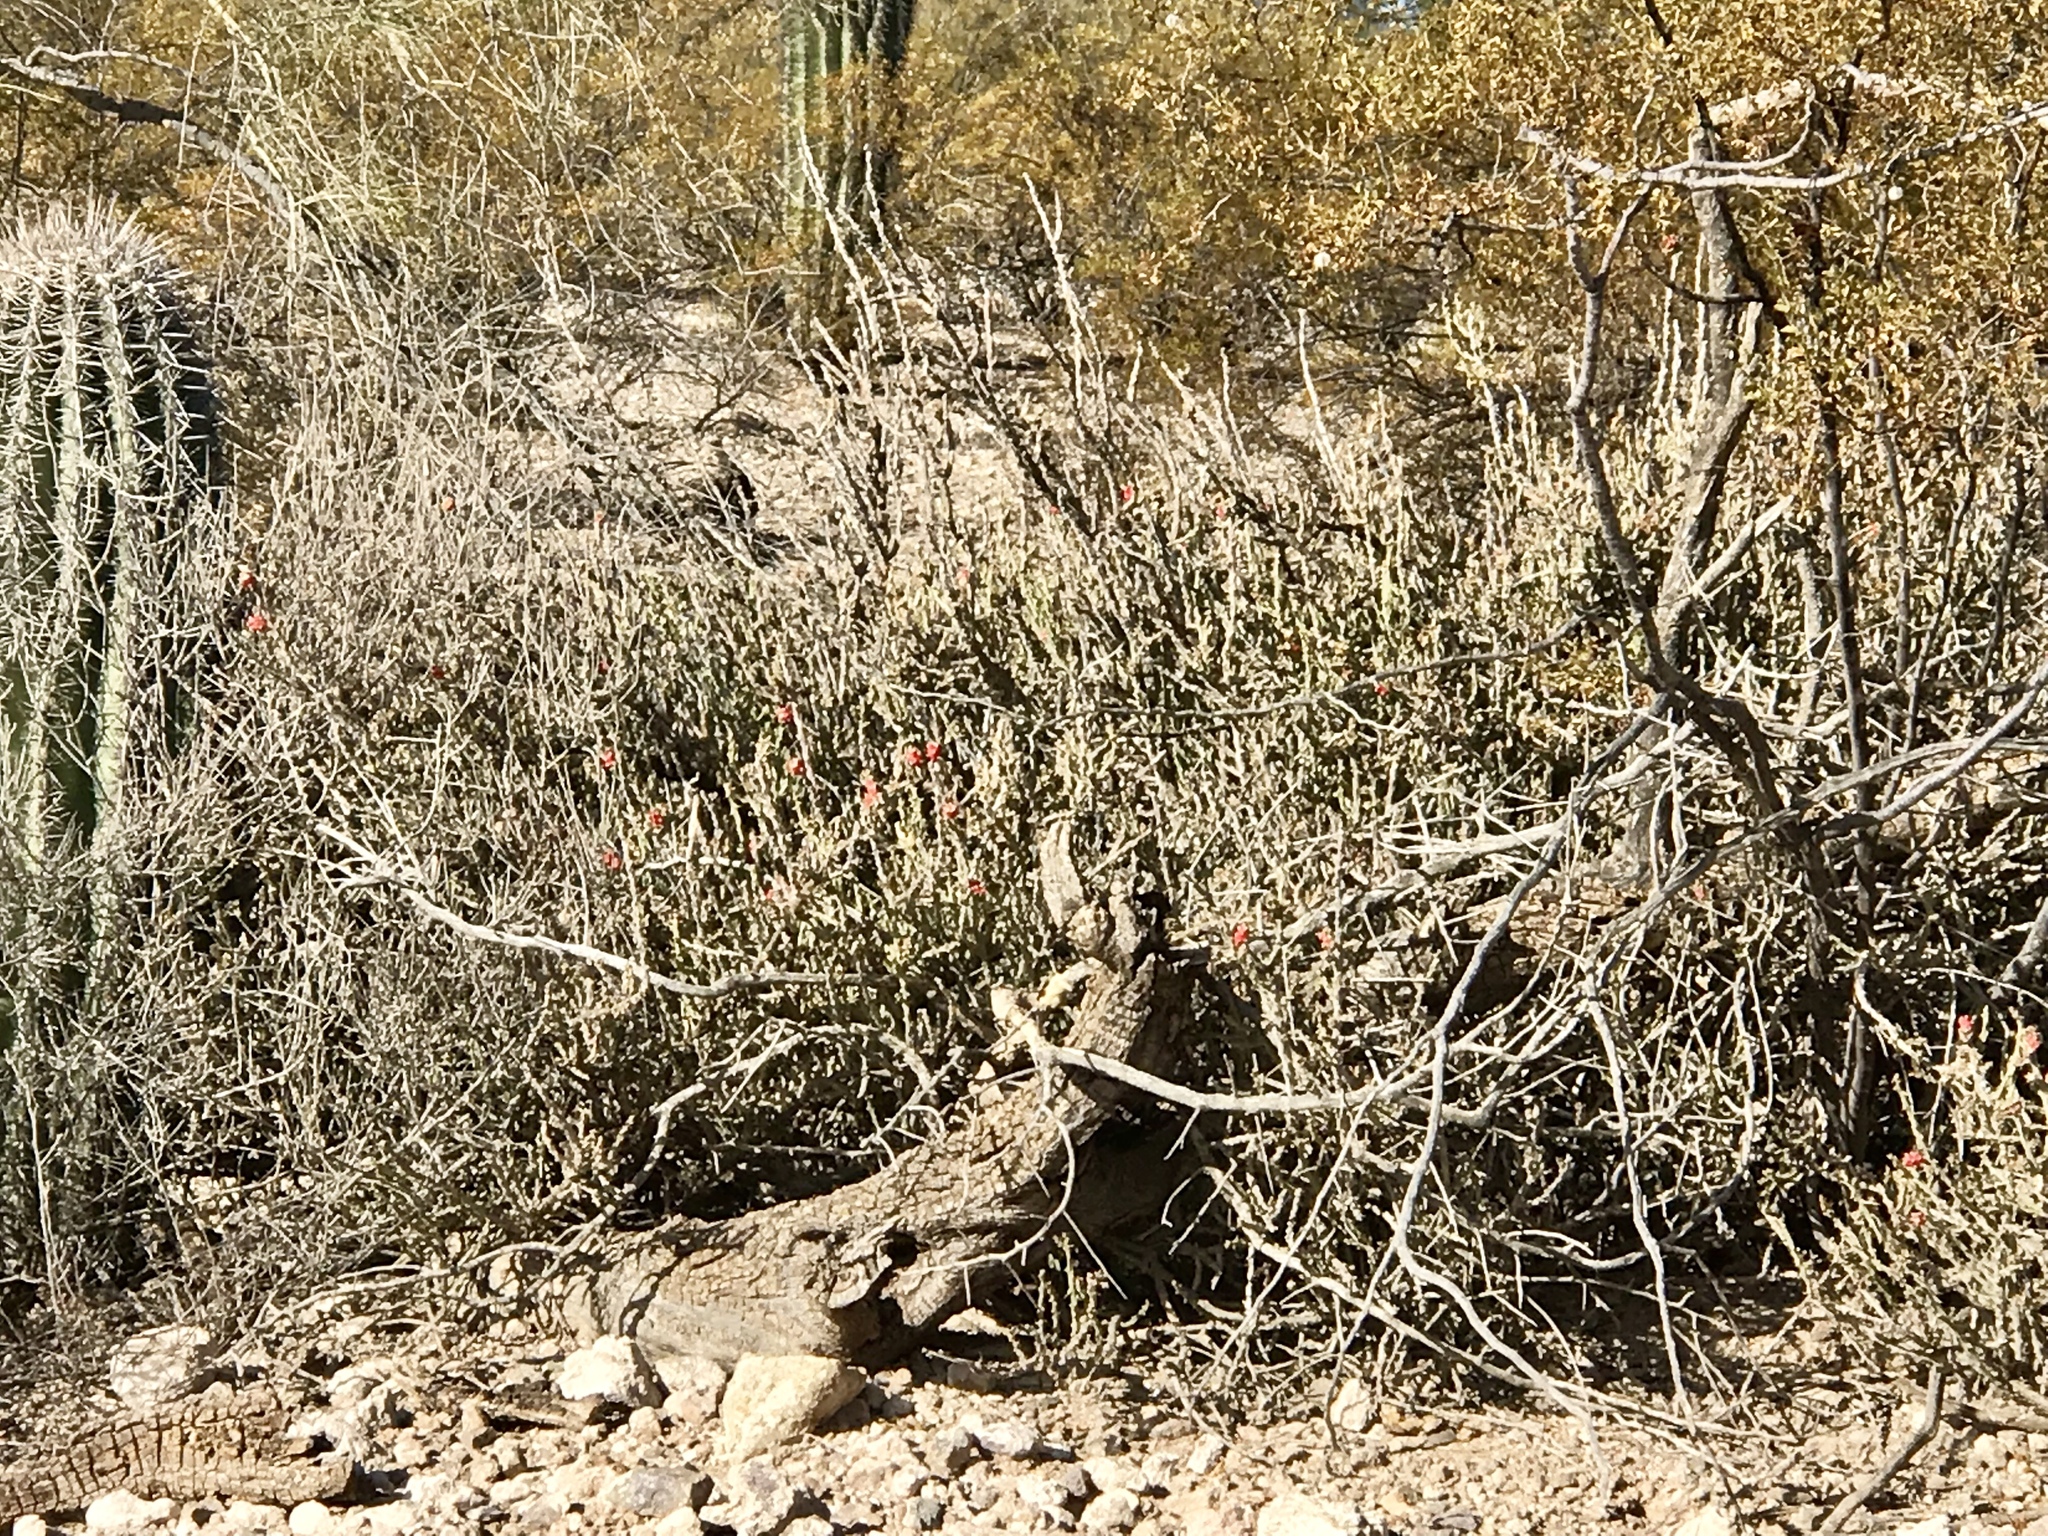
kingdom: Plantae
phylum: Tracheophyta
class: Magnoliopsida
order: Caryophyllales
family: Cactaceae
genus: Cylindropuntia
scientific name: Cylindropuntia leptocaulis
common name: Christmas cactus
